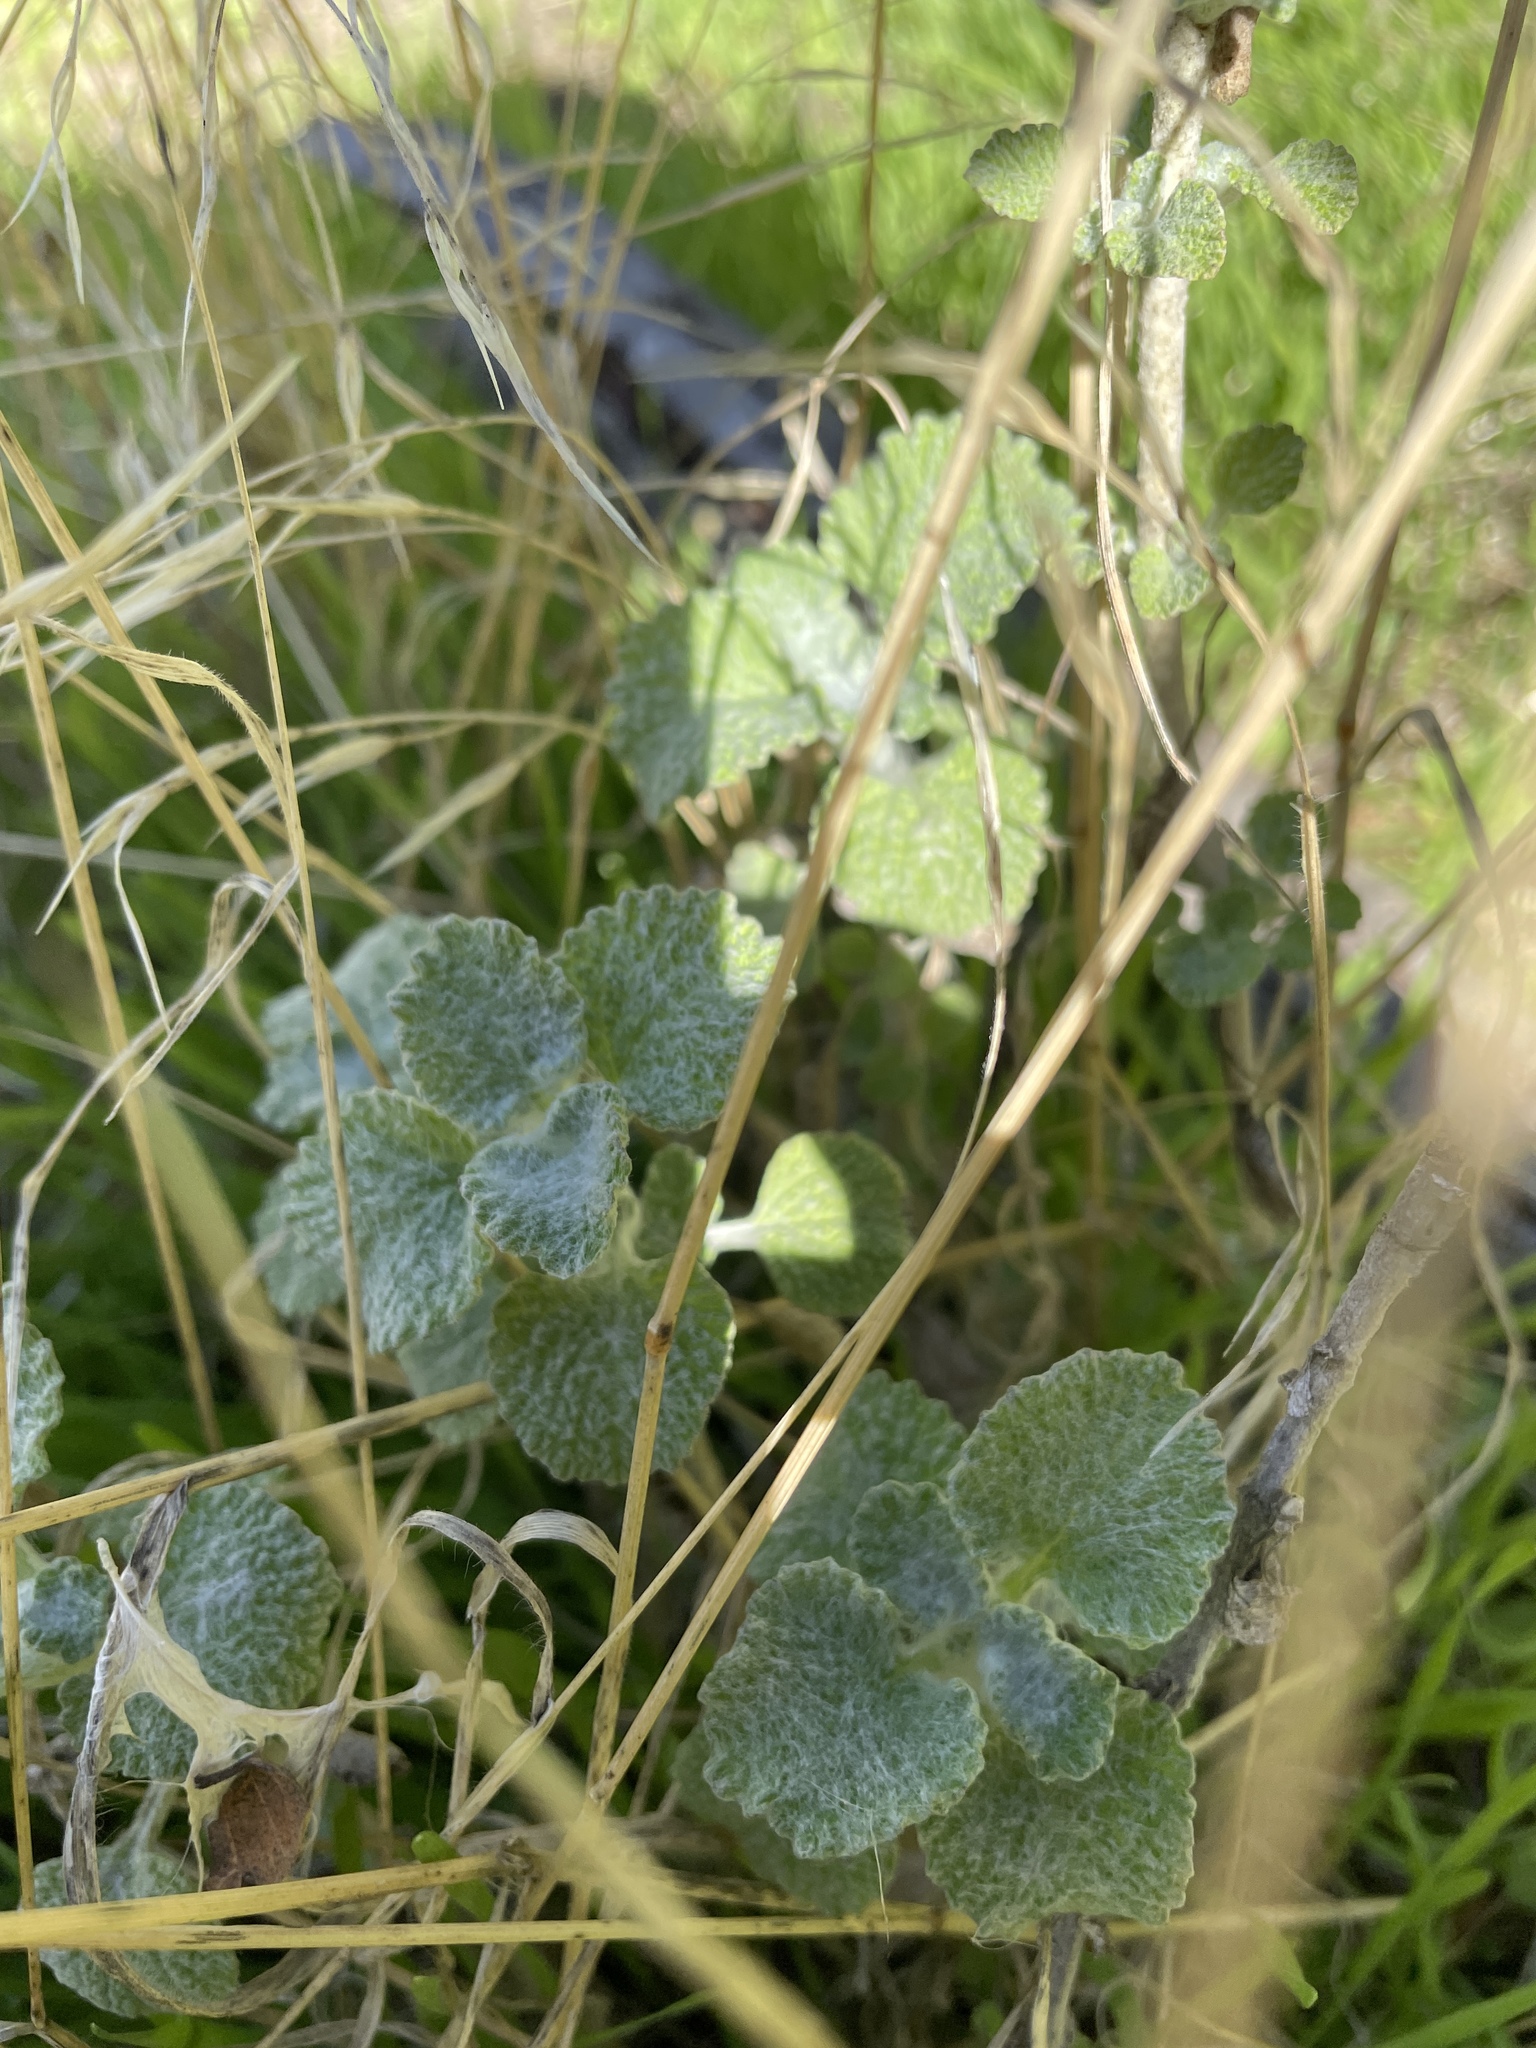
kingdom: Plantae
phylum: Tracheophyta
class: Magnoliopsida
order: Lamiales
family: Lamiaceae
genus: Marrubium
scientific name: Marrubium vulgare
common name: Horehound
